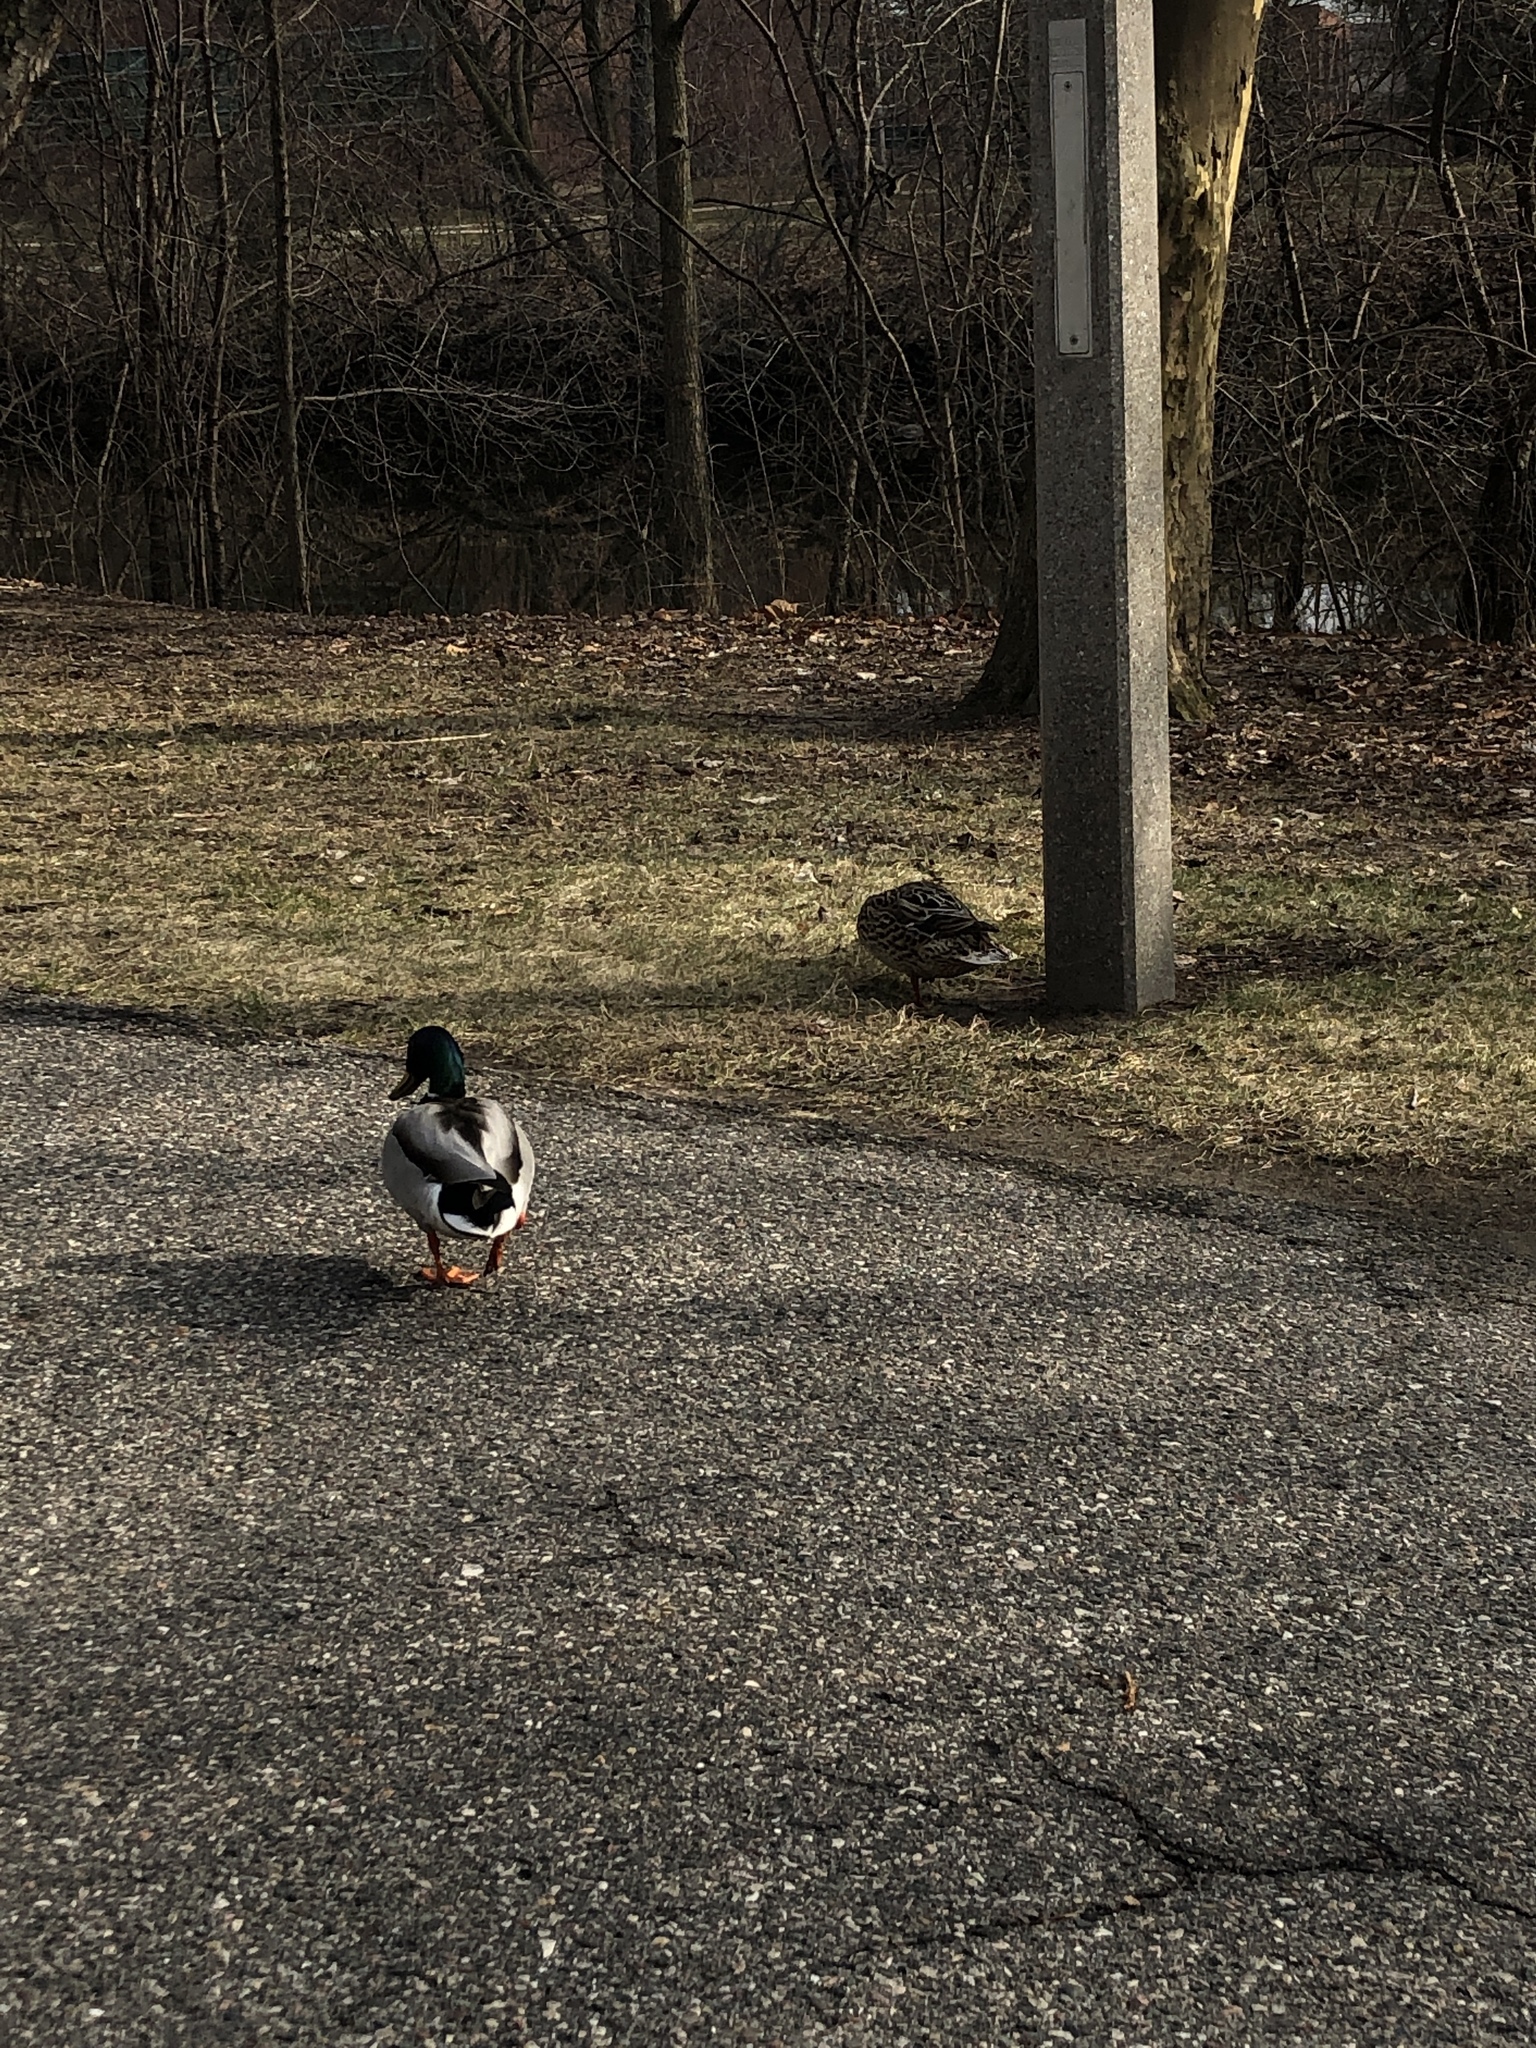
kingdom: Animalia
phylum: Chordata
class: Aves
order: Anseriformes
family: Anatidae
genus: Anas
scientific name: Anas platyrhynchos
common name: Mallard
